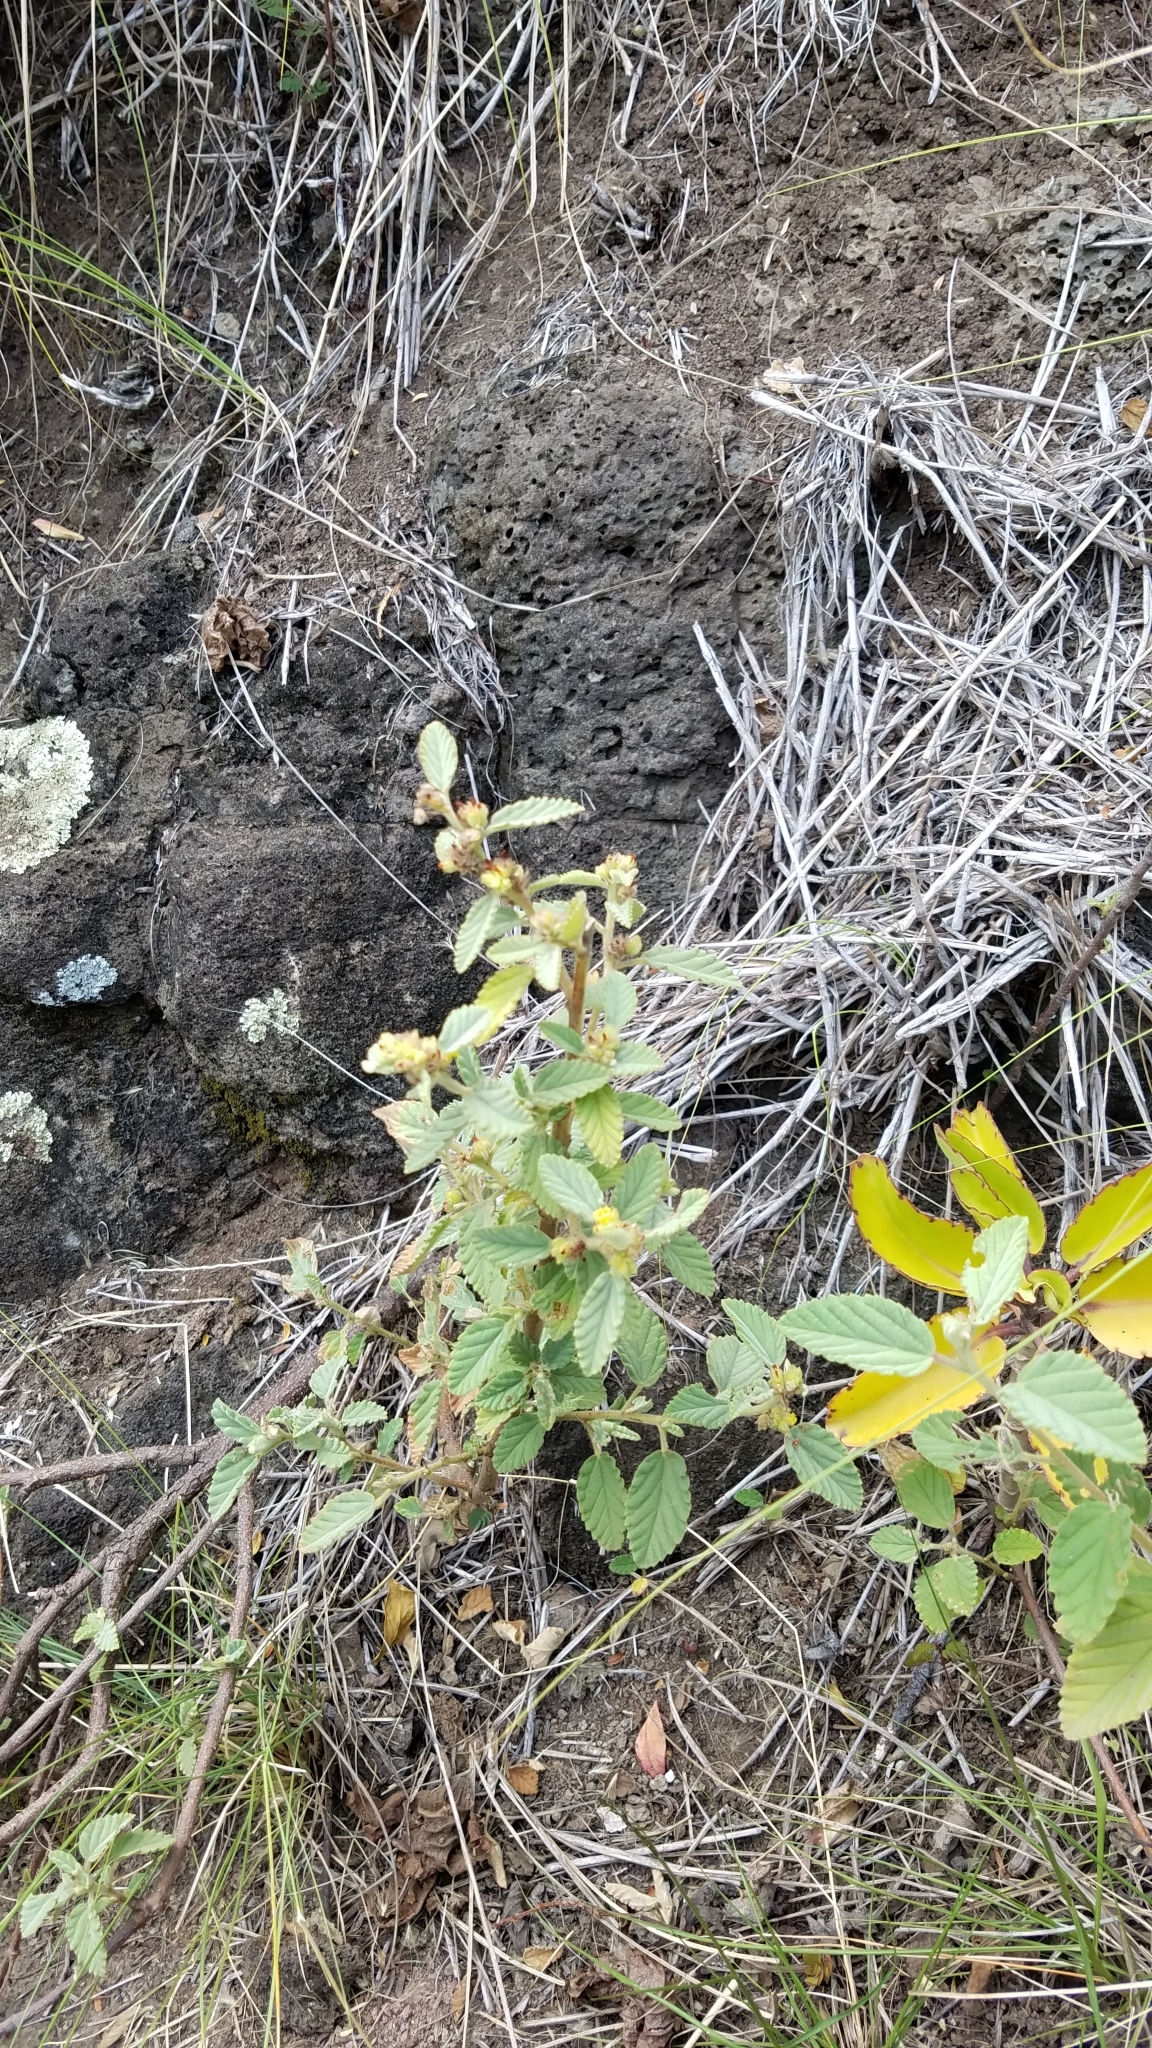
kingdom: Plantae
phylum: Tracheophyta
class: Magnoliopsida
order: Malvales
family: Malvaceae
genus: Waltheria
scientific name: Waltheria indica
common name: Leather-coat
